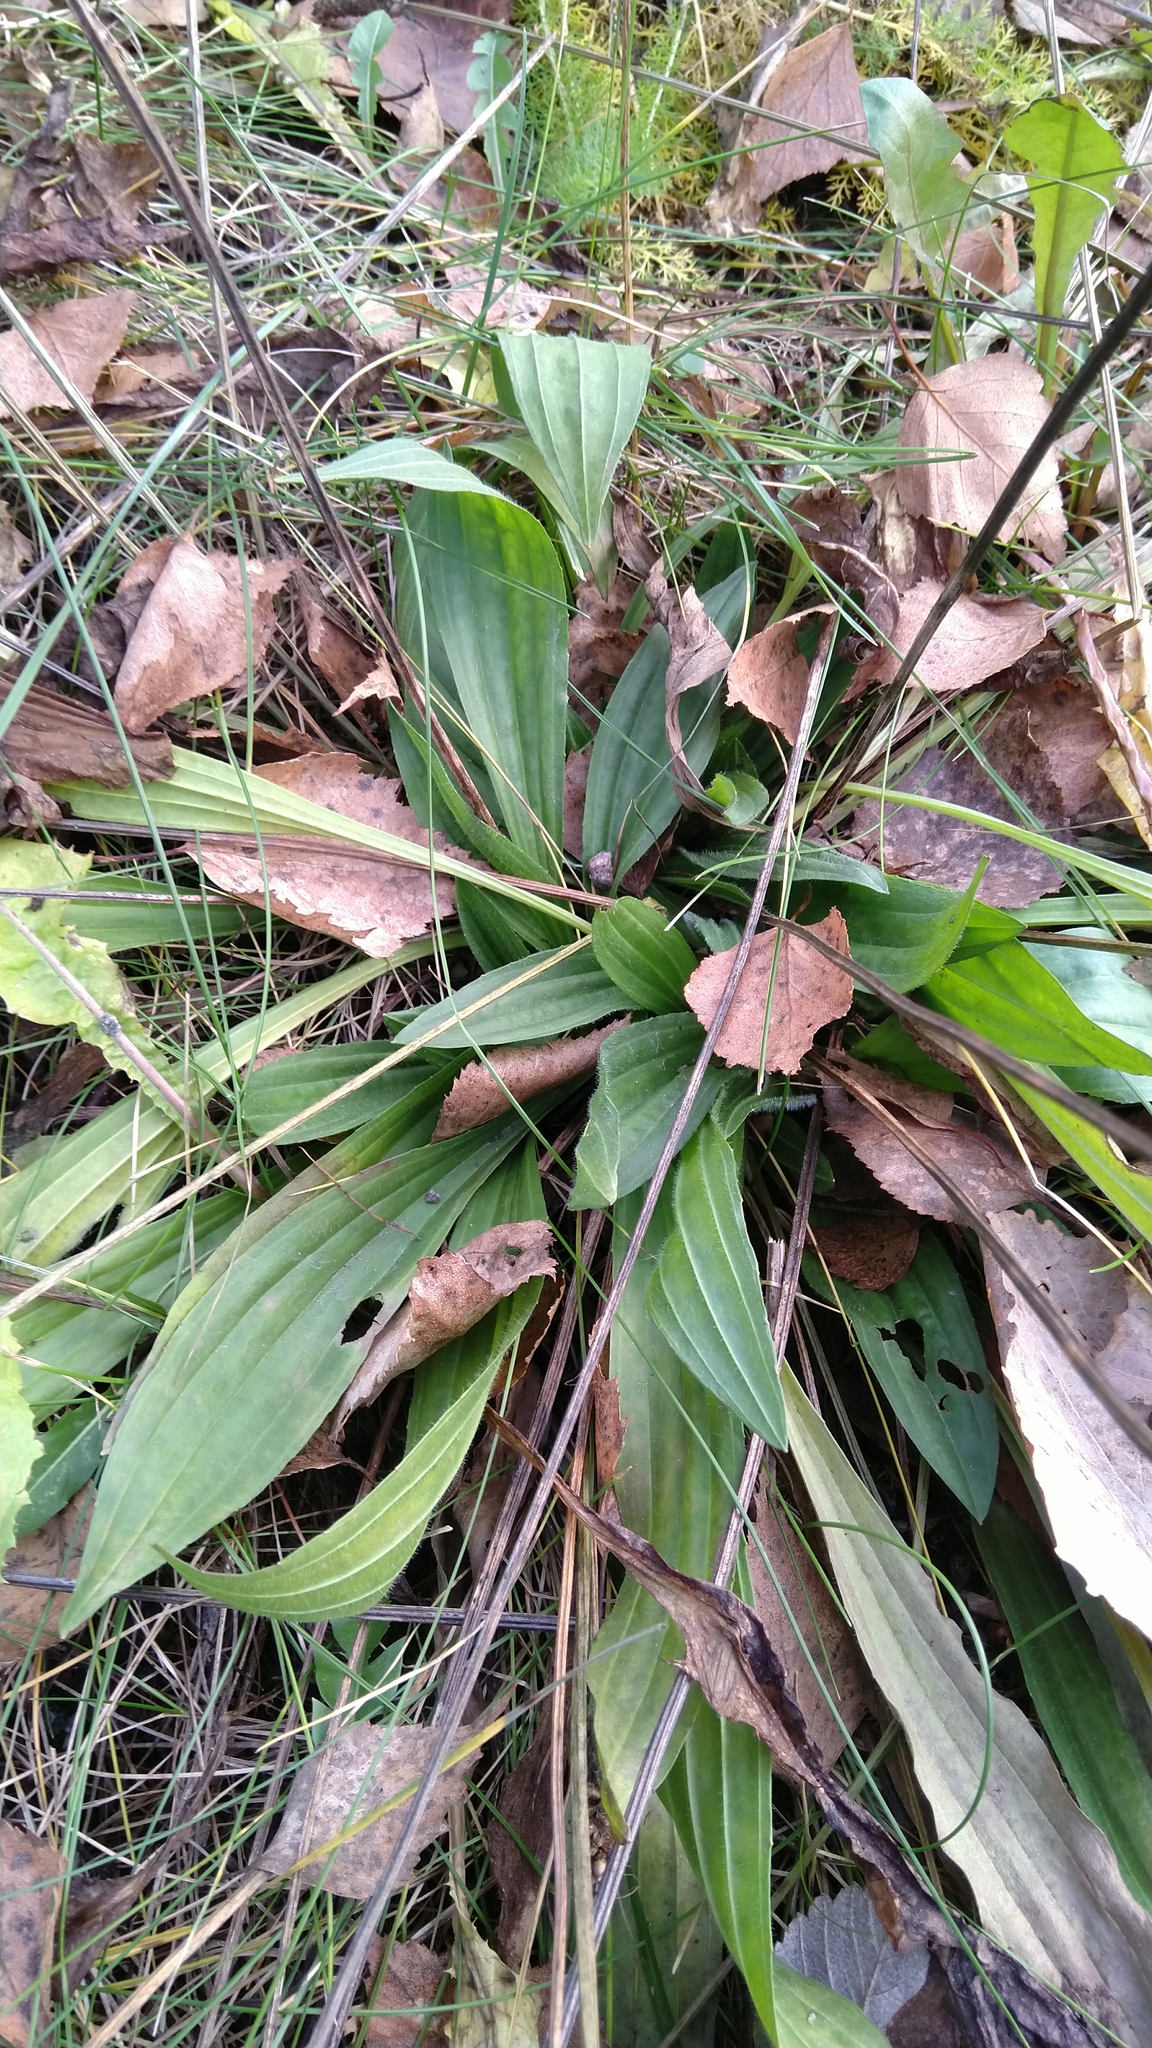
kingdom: Plantae
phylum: Tracheophyta
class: Magnoliopsida
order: Lamiales
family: Plantaginaceae
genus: Plantago
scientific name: Plantago lanceolata
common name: Ribwort plantain
